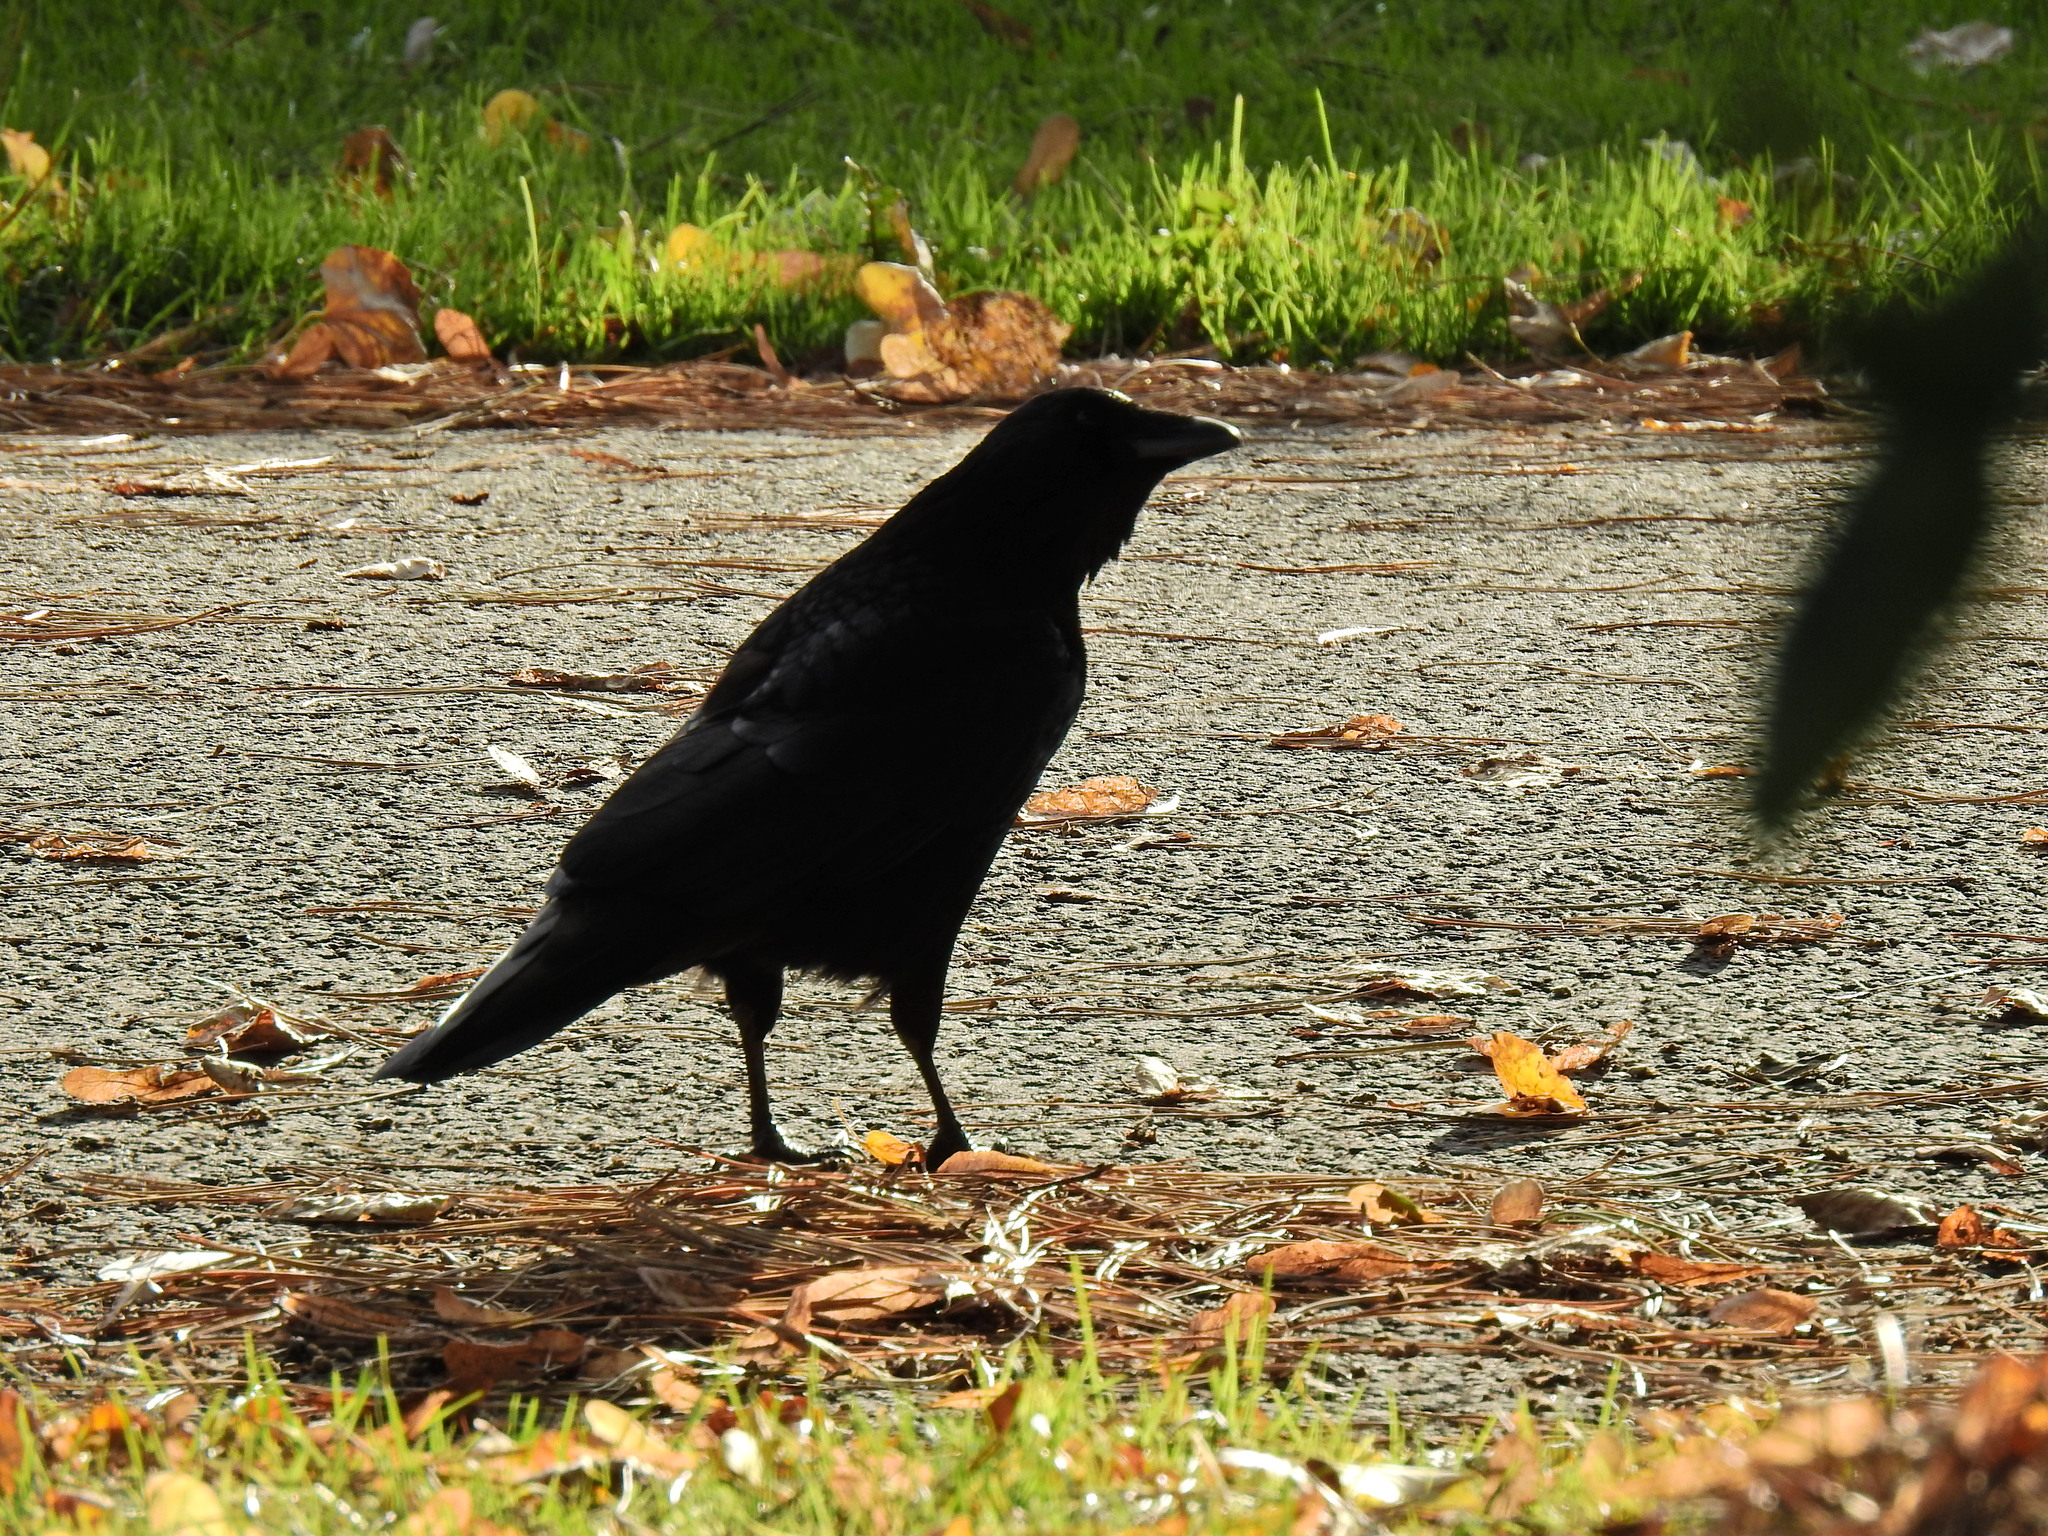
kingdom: Animalia
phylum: Chordata
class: Aves
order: Passeriformes
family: Corvidae
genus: Corvus
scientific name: Corvus corone
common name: Carrion crow
